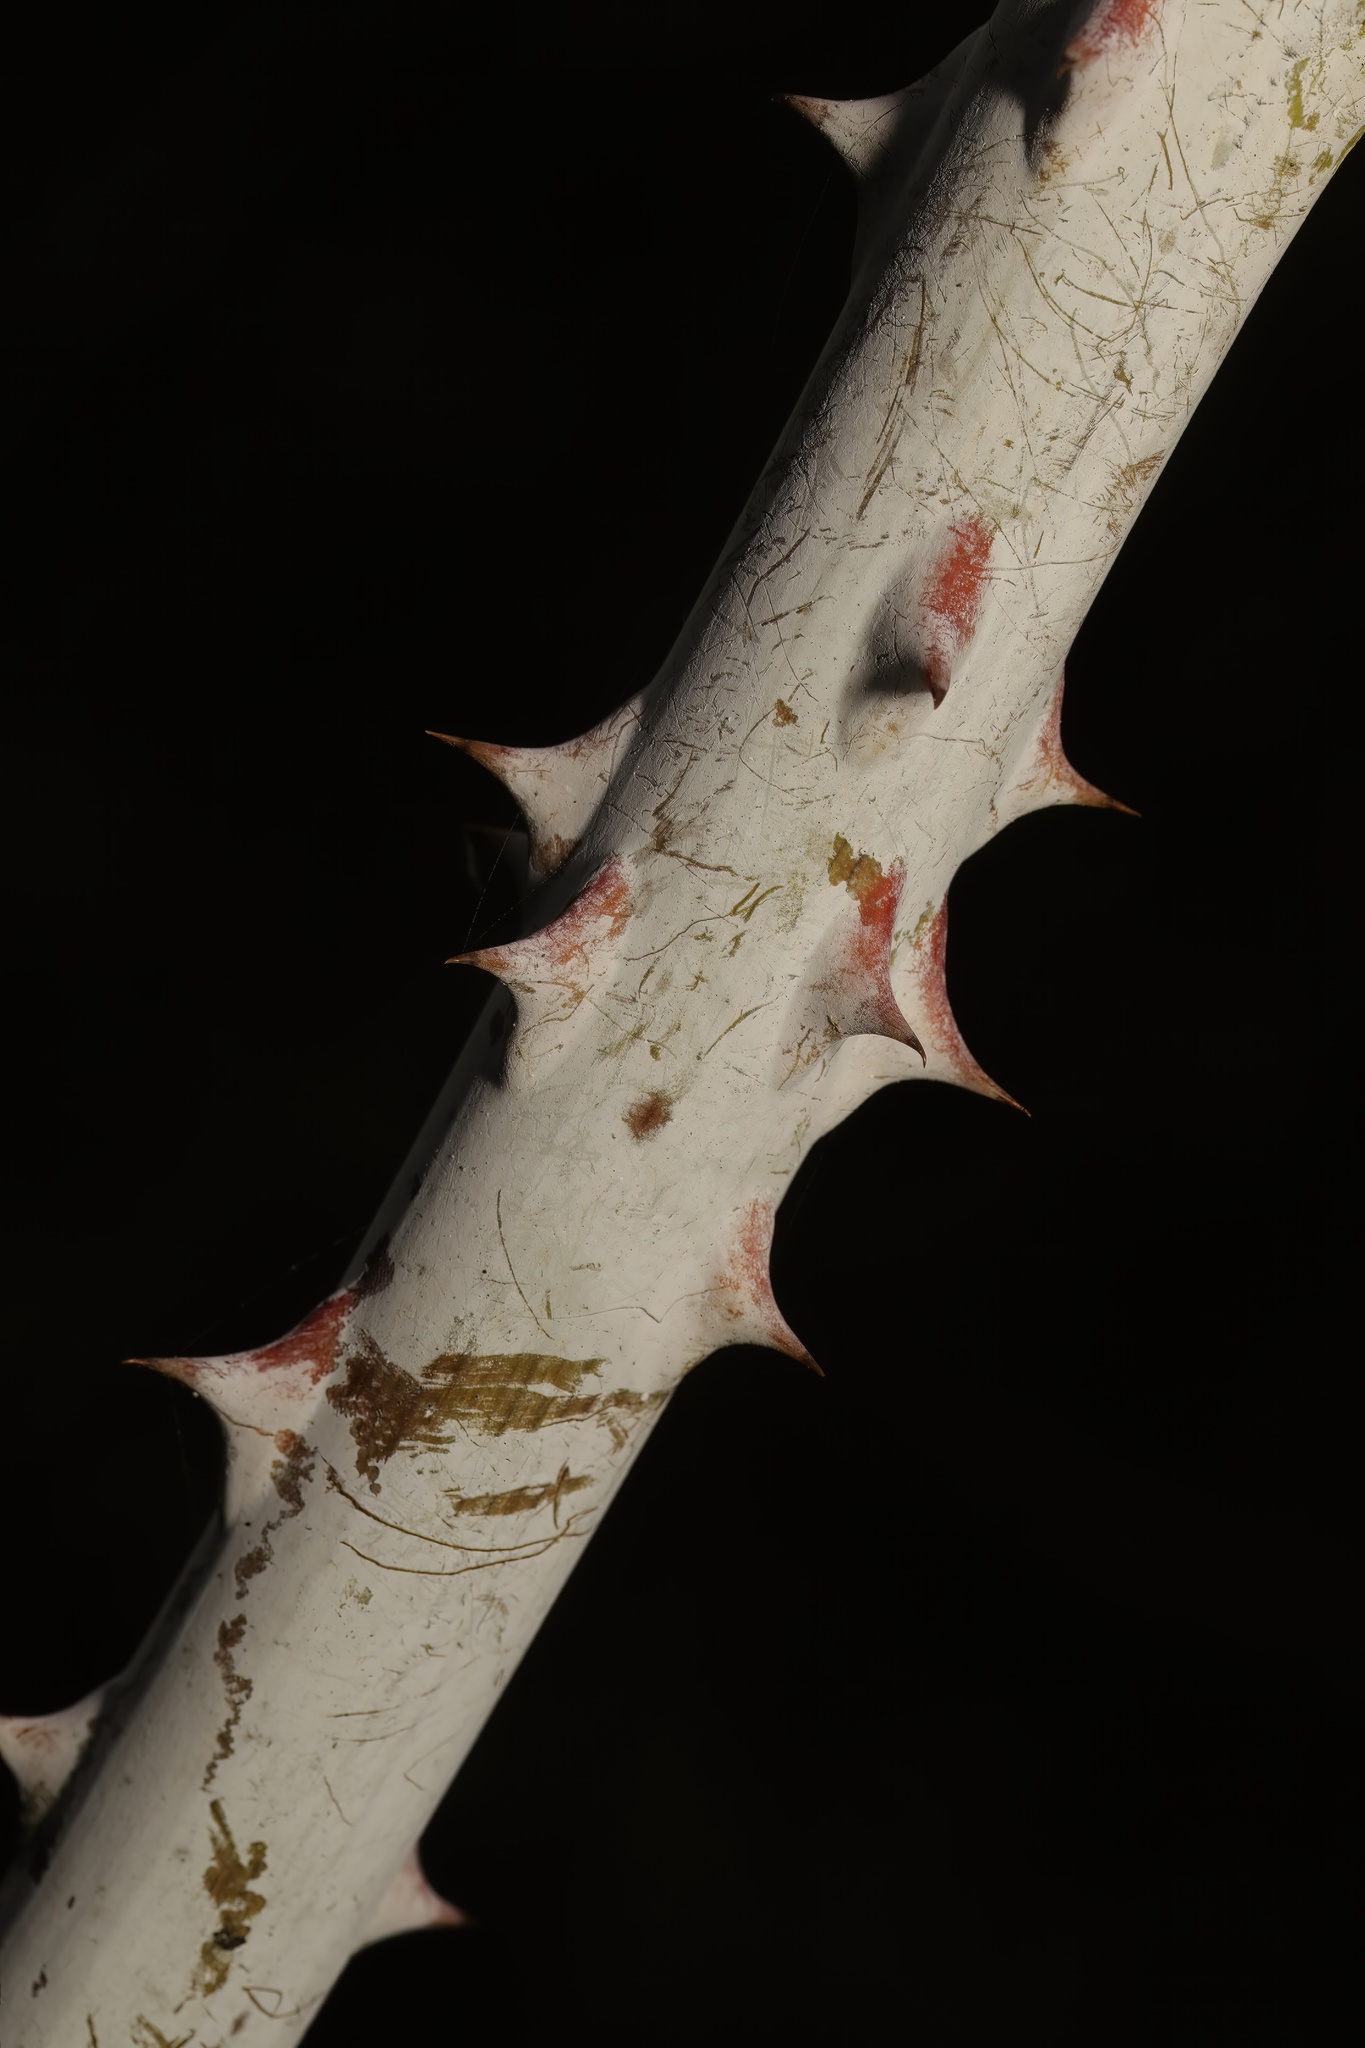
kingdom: Plantae
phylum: Tracheophyta
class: Magnoliopsida
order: Rosales
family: Rosaceae
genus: Rubus
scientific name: Rubus cockburnianus
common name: White-stemmed bramble
